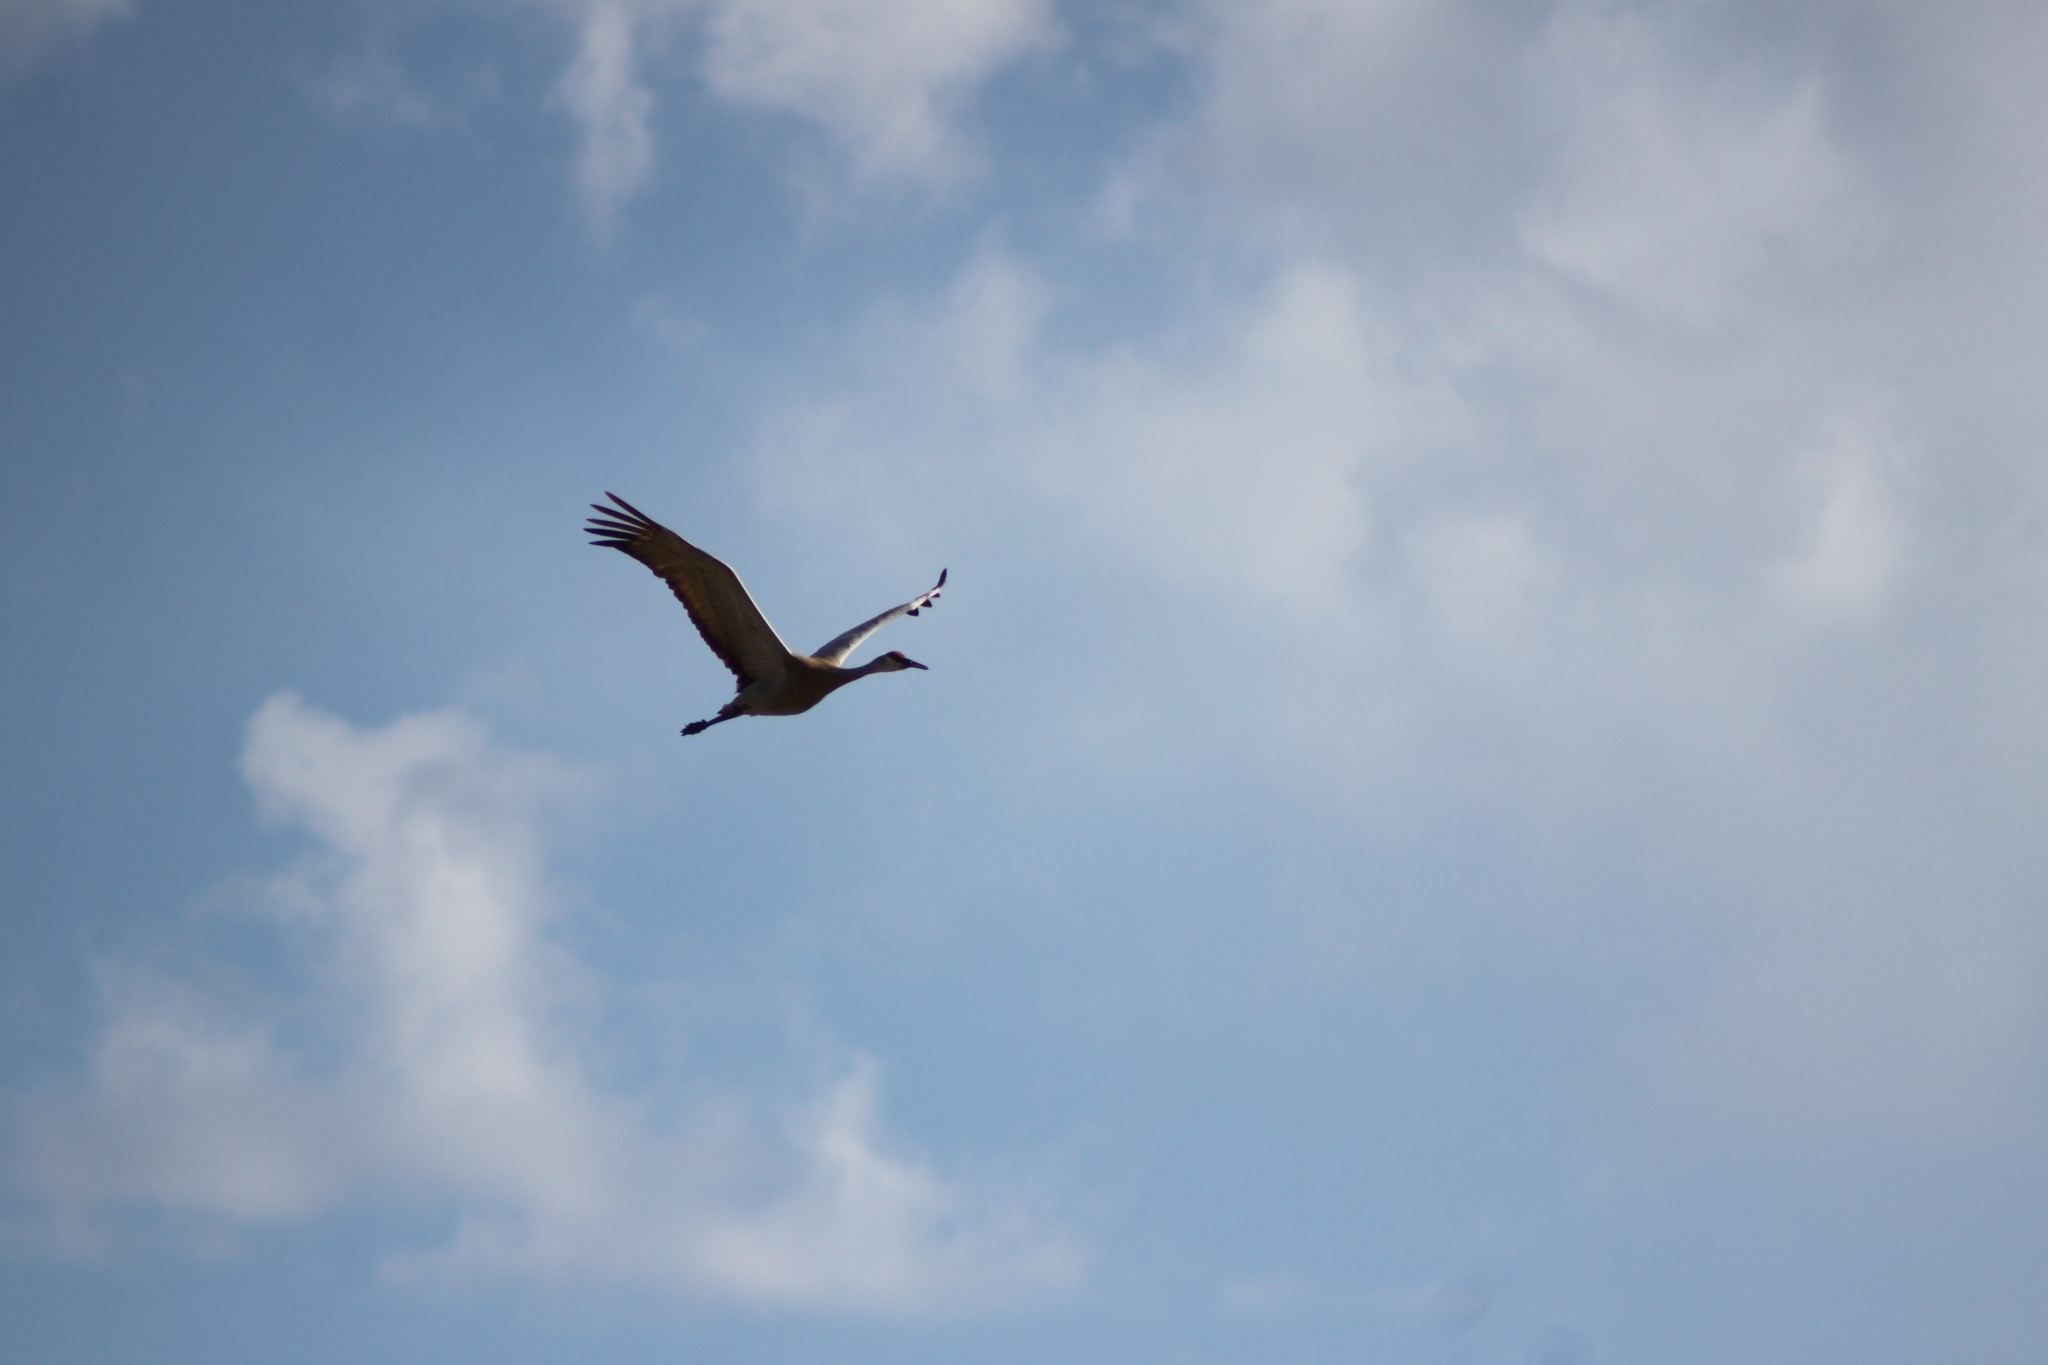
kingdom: Animalia
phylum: Chordata
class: Aves
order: Gruiformes
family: Gruidae
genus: Grus
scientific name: Grus canadensis
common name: Sandhill crane
